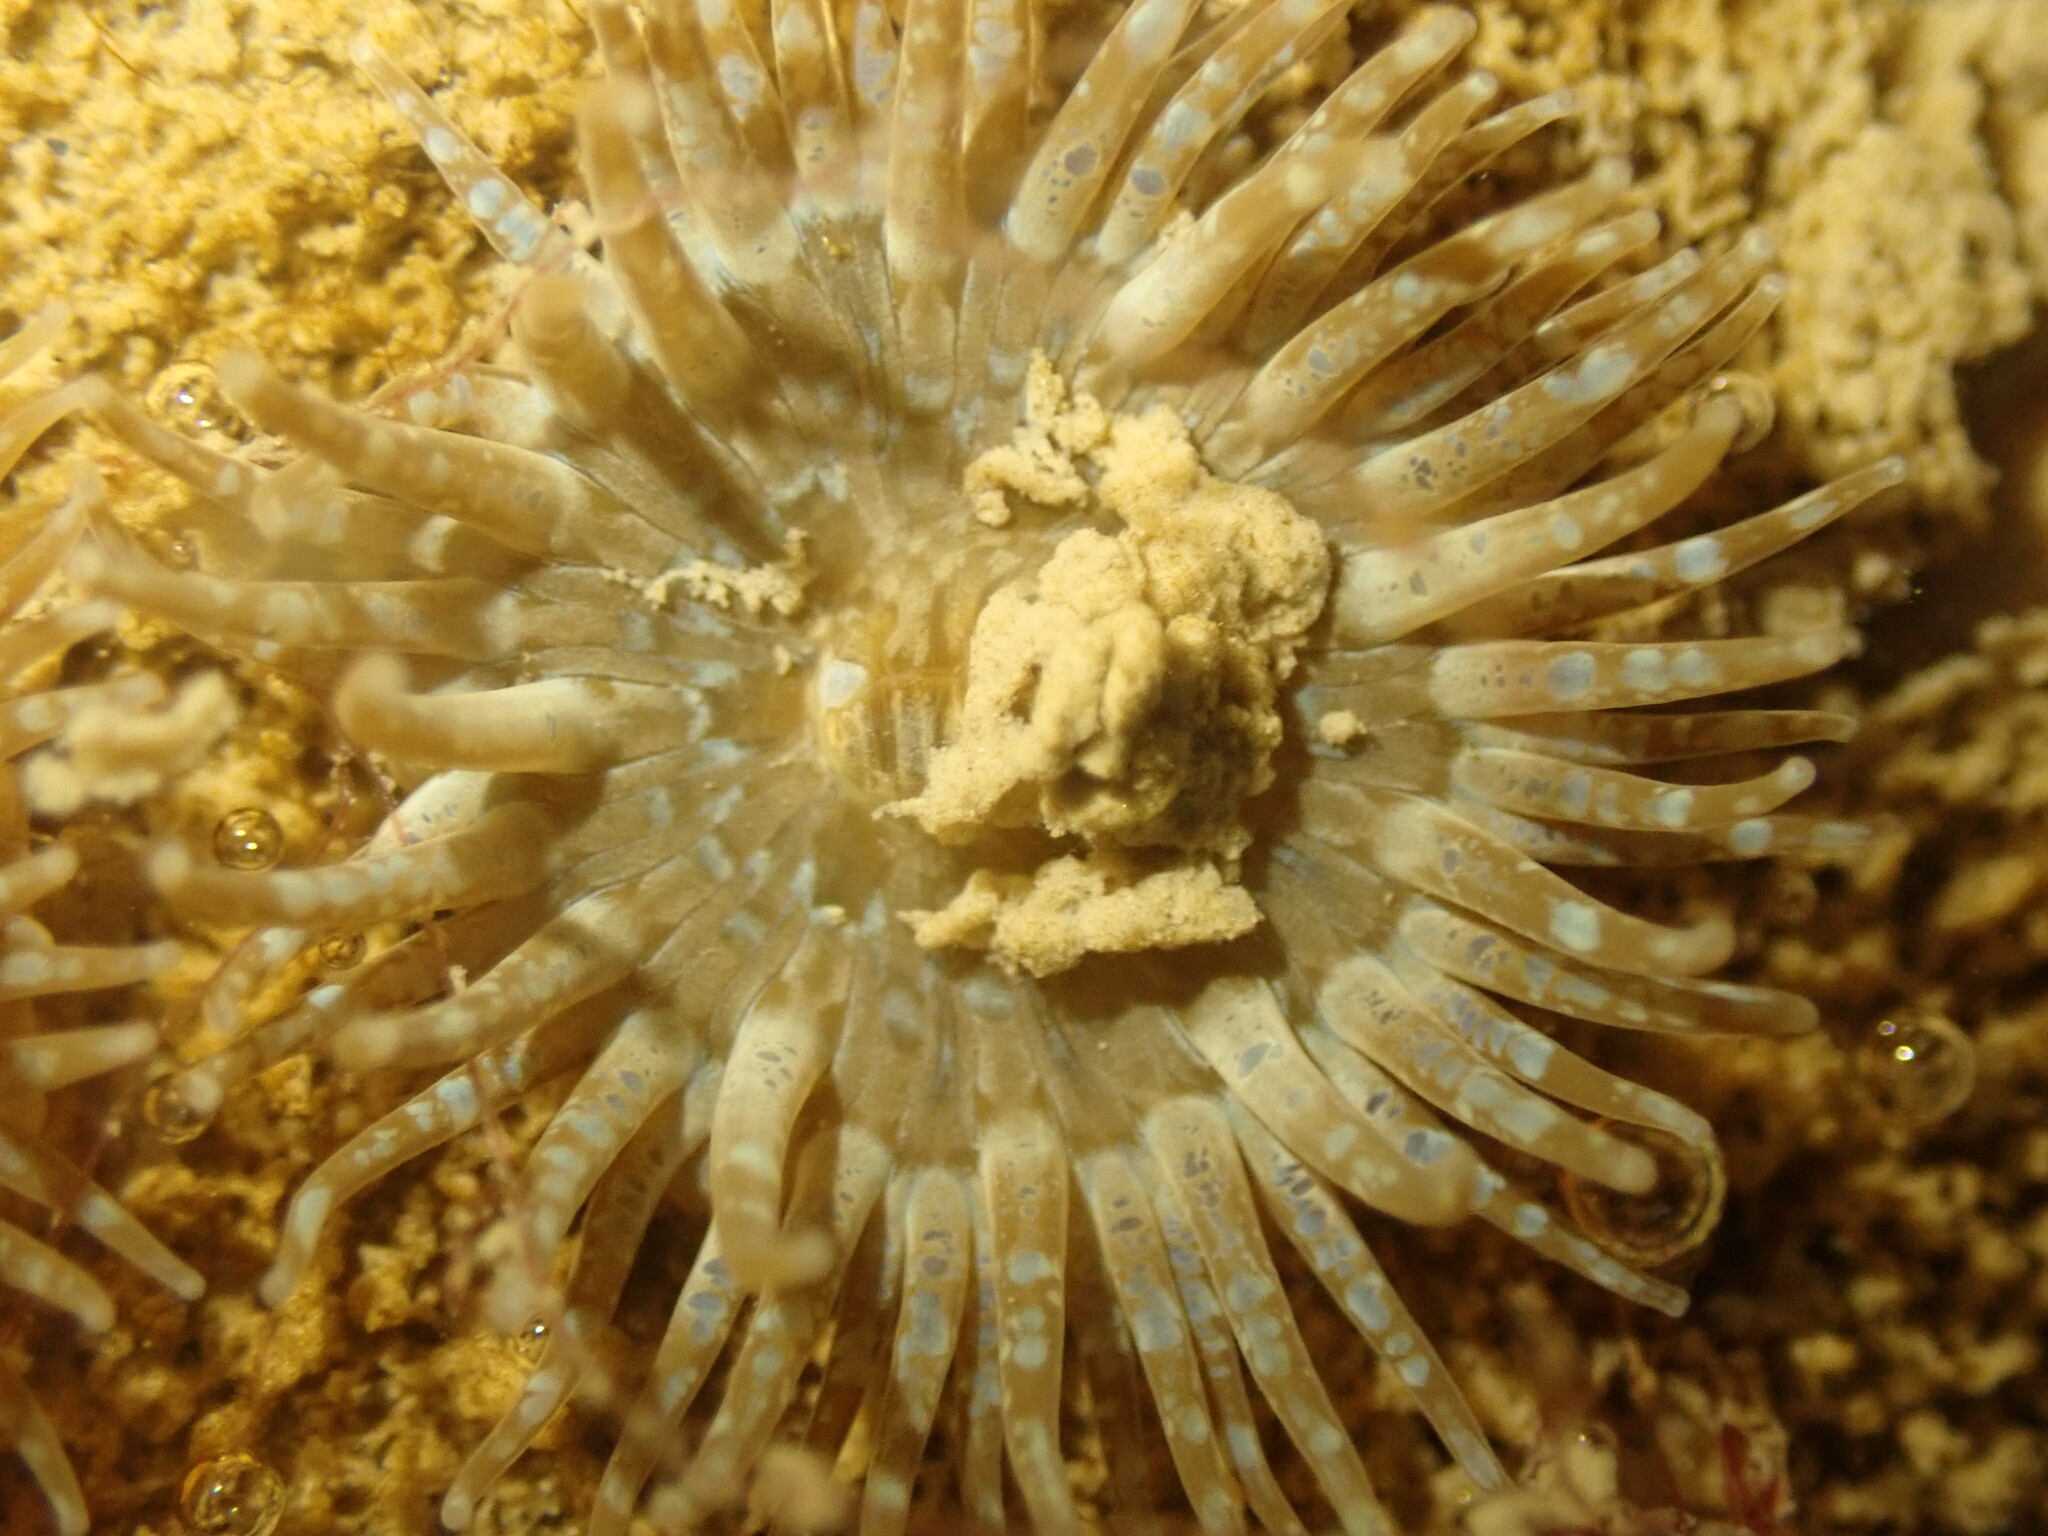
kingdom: Animalia
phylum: Cnidaria
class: Anthozoa
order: Actiniaria
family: Actiniidae
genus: Anthopleura
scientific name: Anthopleura hermaphroditica
